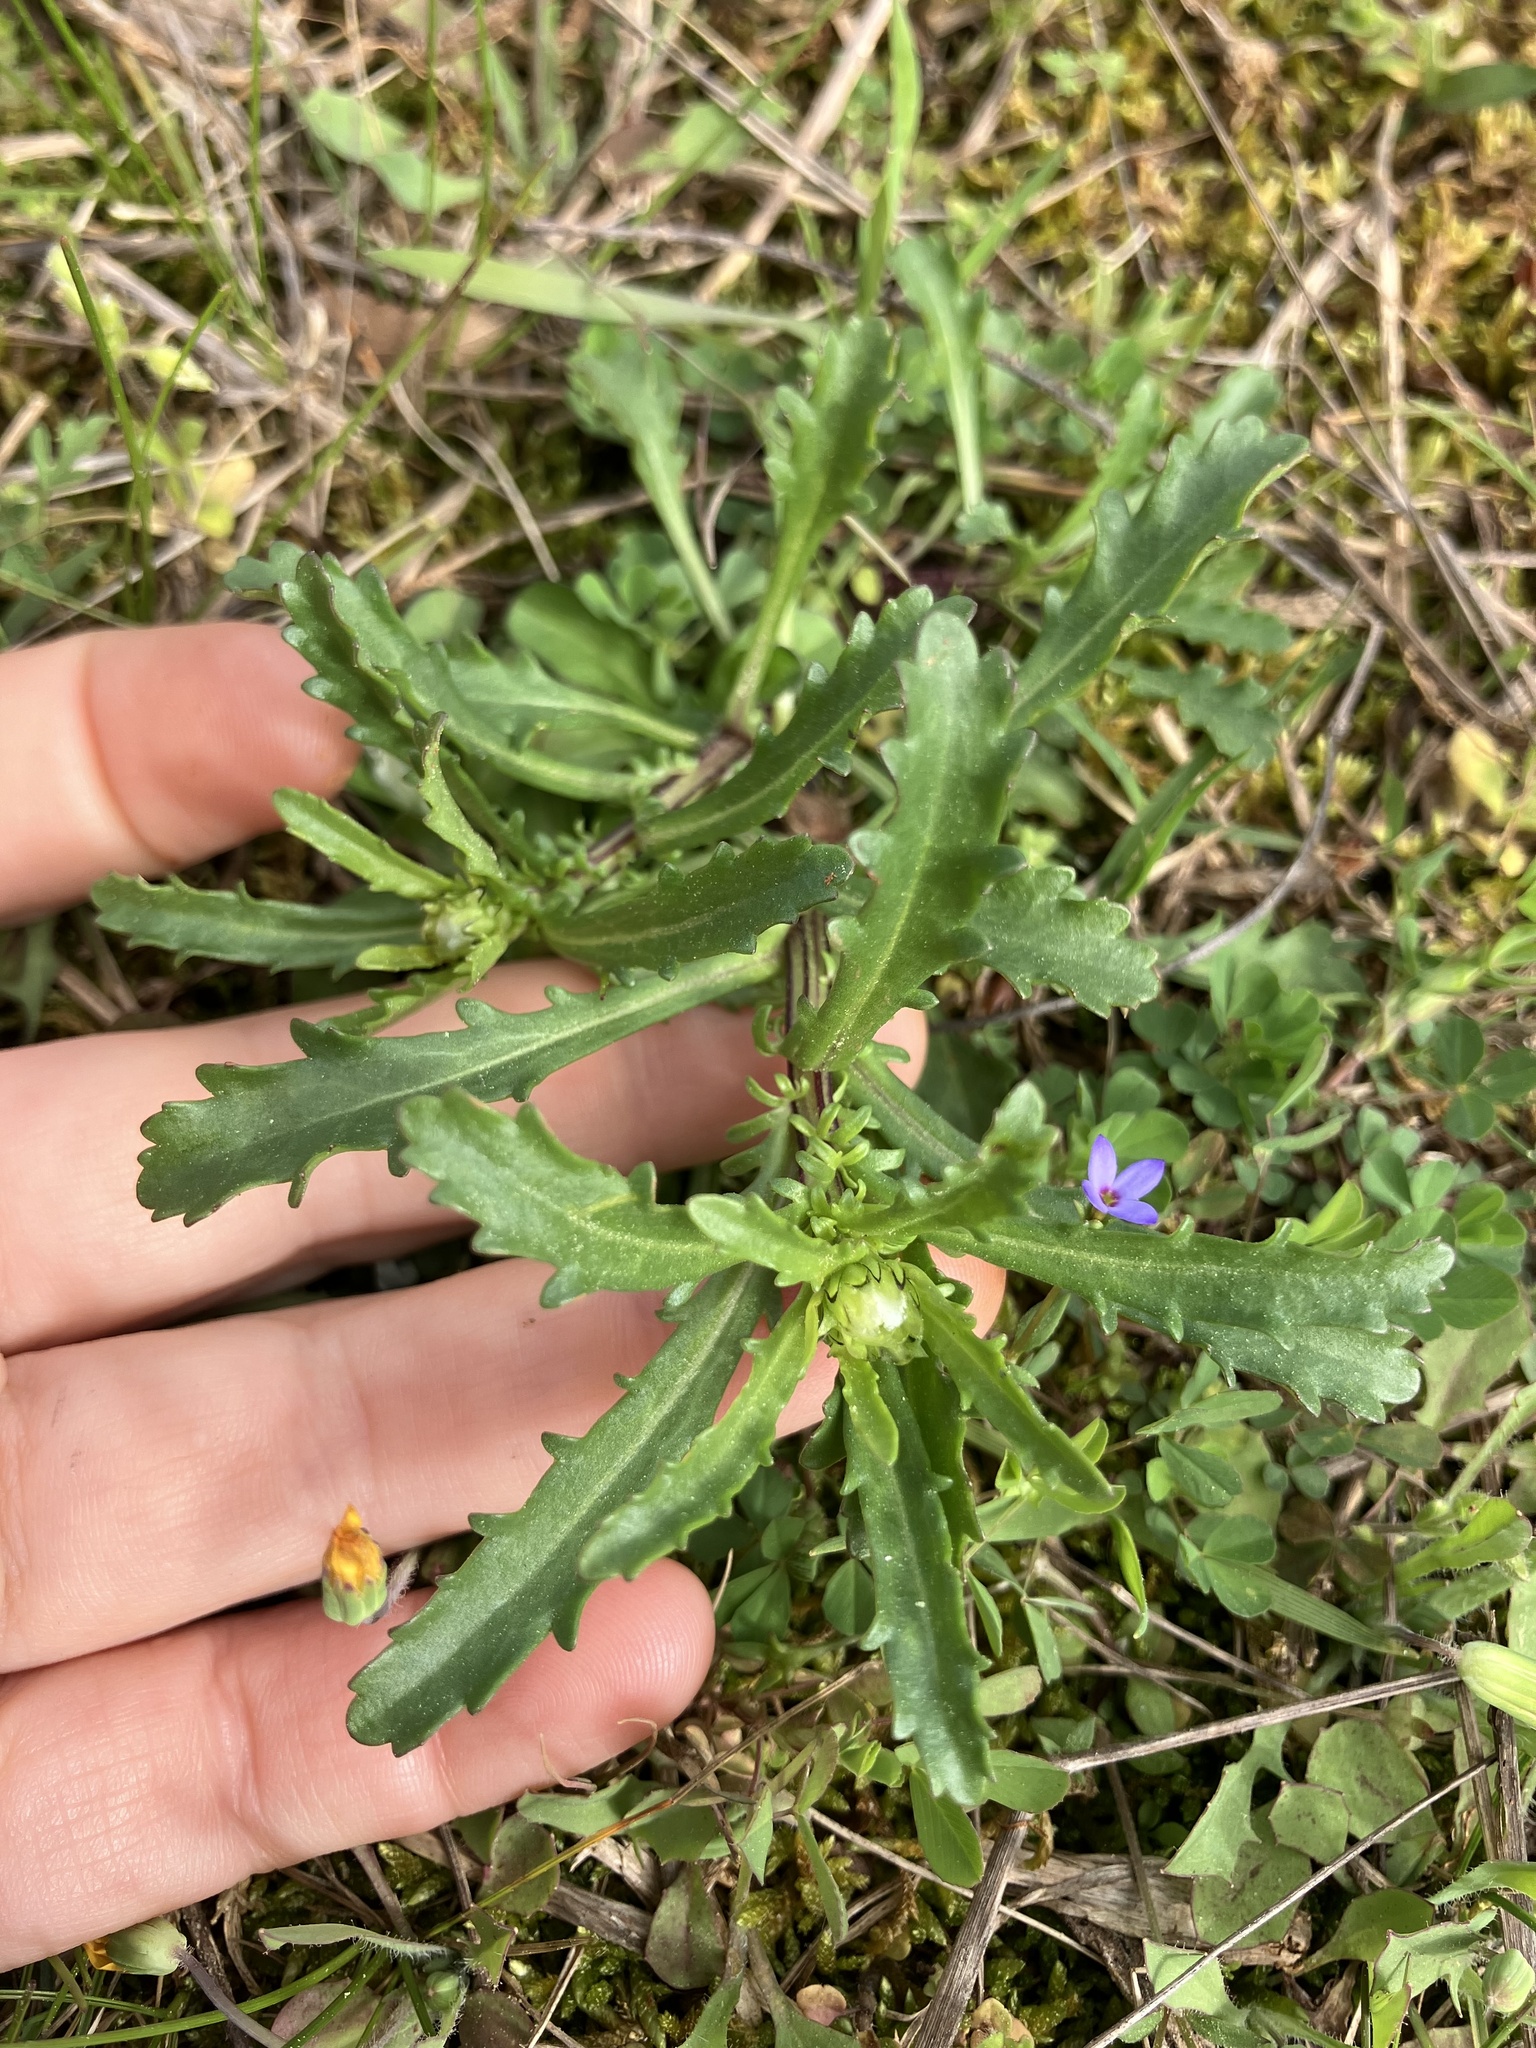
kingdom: Plantae
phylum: Tracheophyta
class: Magnoliopsida
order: Asterales
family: Asteraceae
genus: Leucanthemum
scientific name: Leucanthemum vulgare
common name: Oxeye daisy
